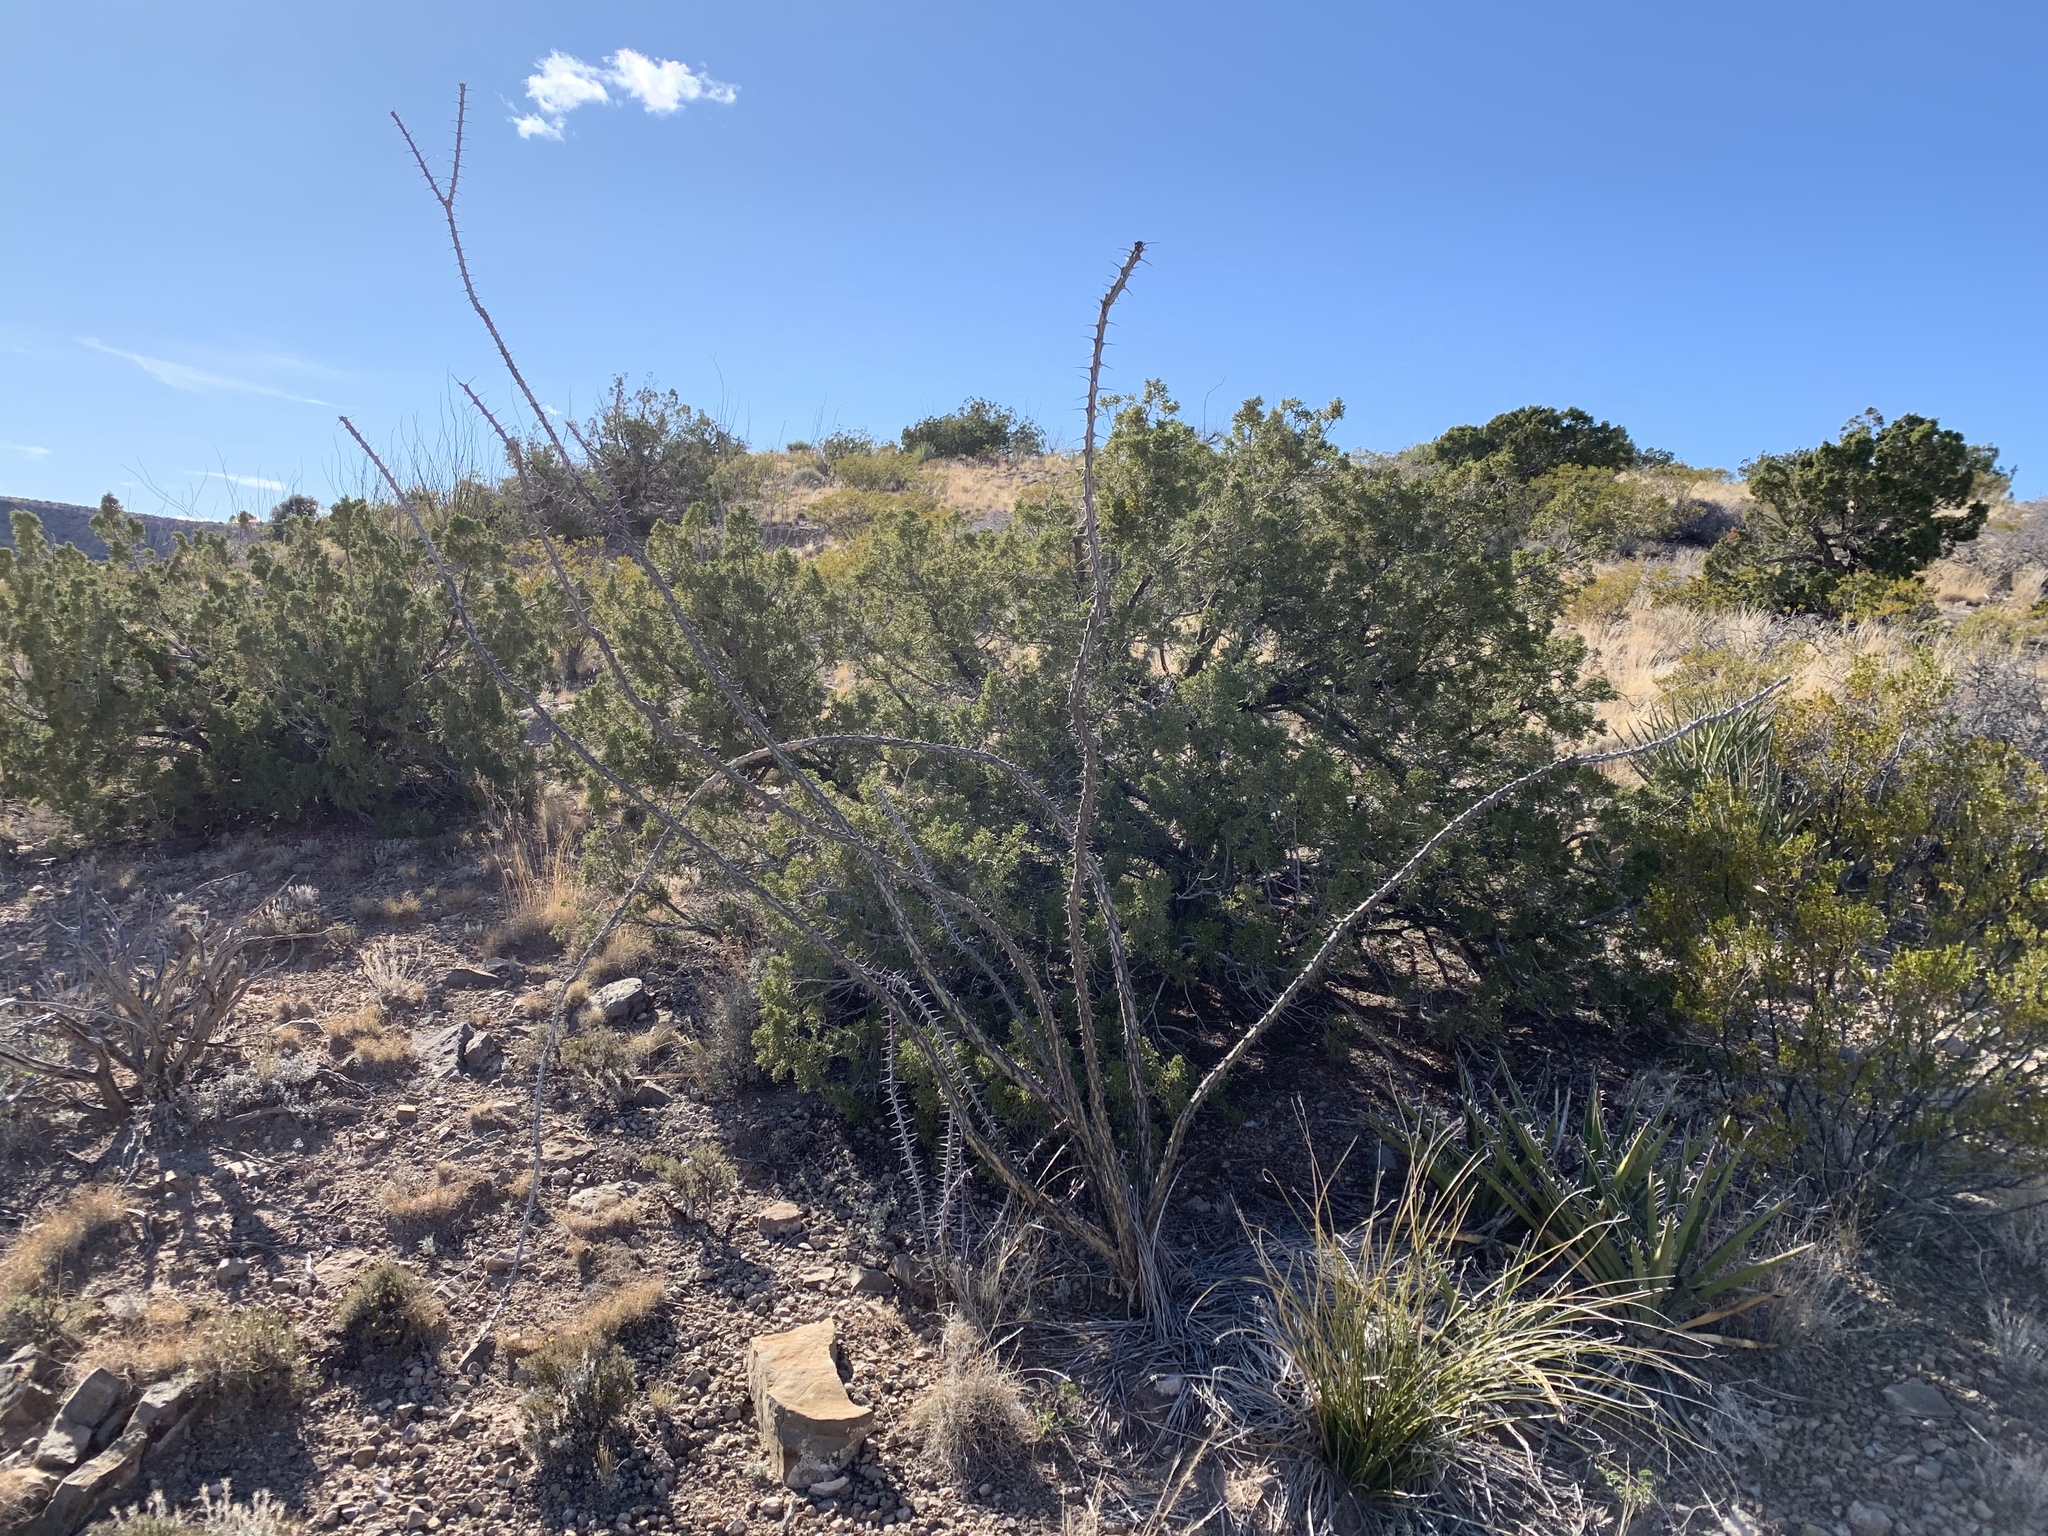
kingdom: Plantae
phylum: Tracheophyta
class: Magnoliopsida
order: Ericales
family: Fouquieriaceae
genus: Fouquieria
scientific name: Fouquieria splendens
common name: Vine-cactus
